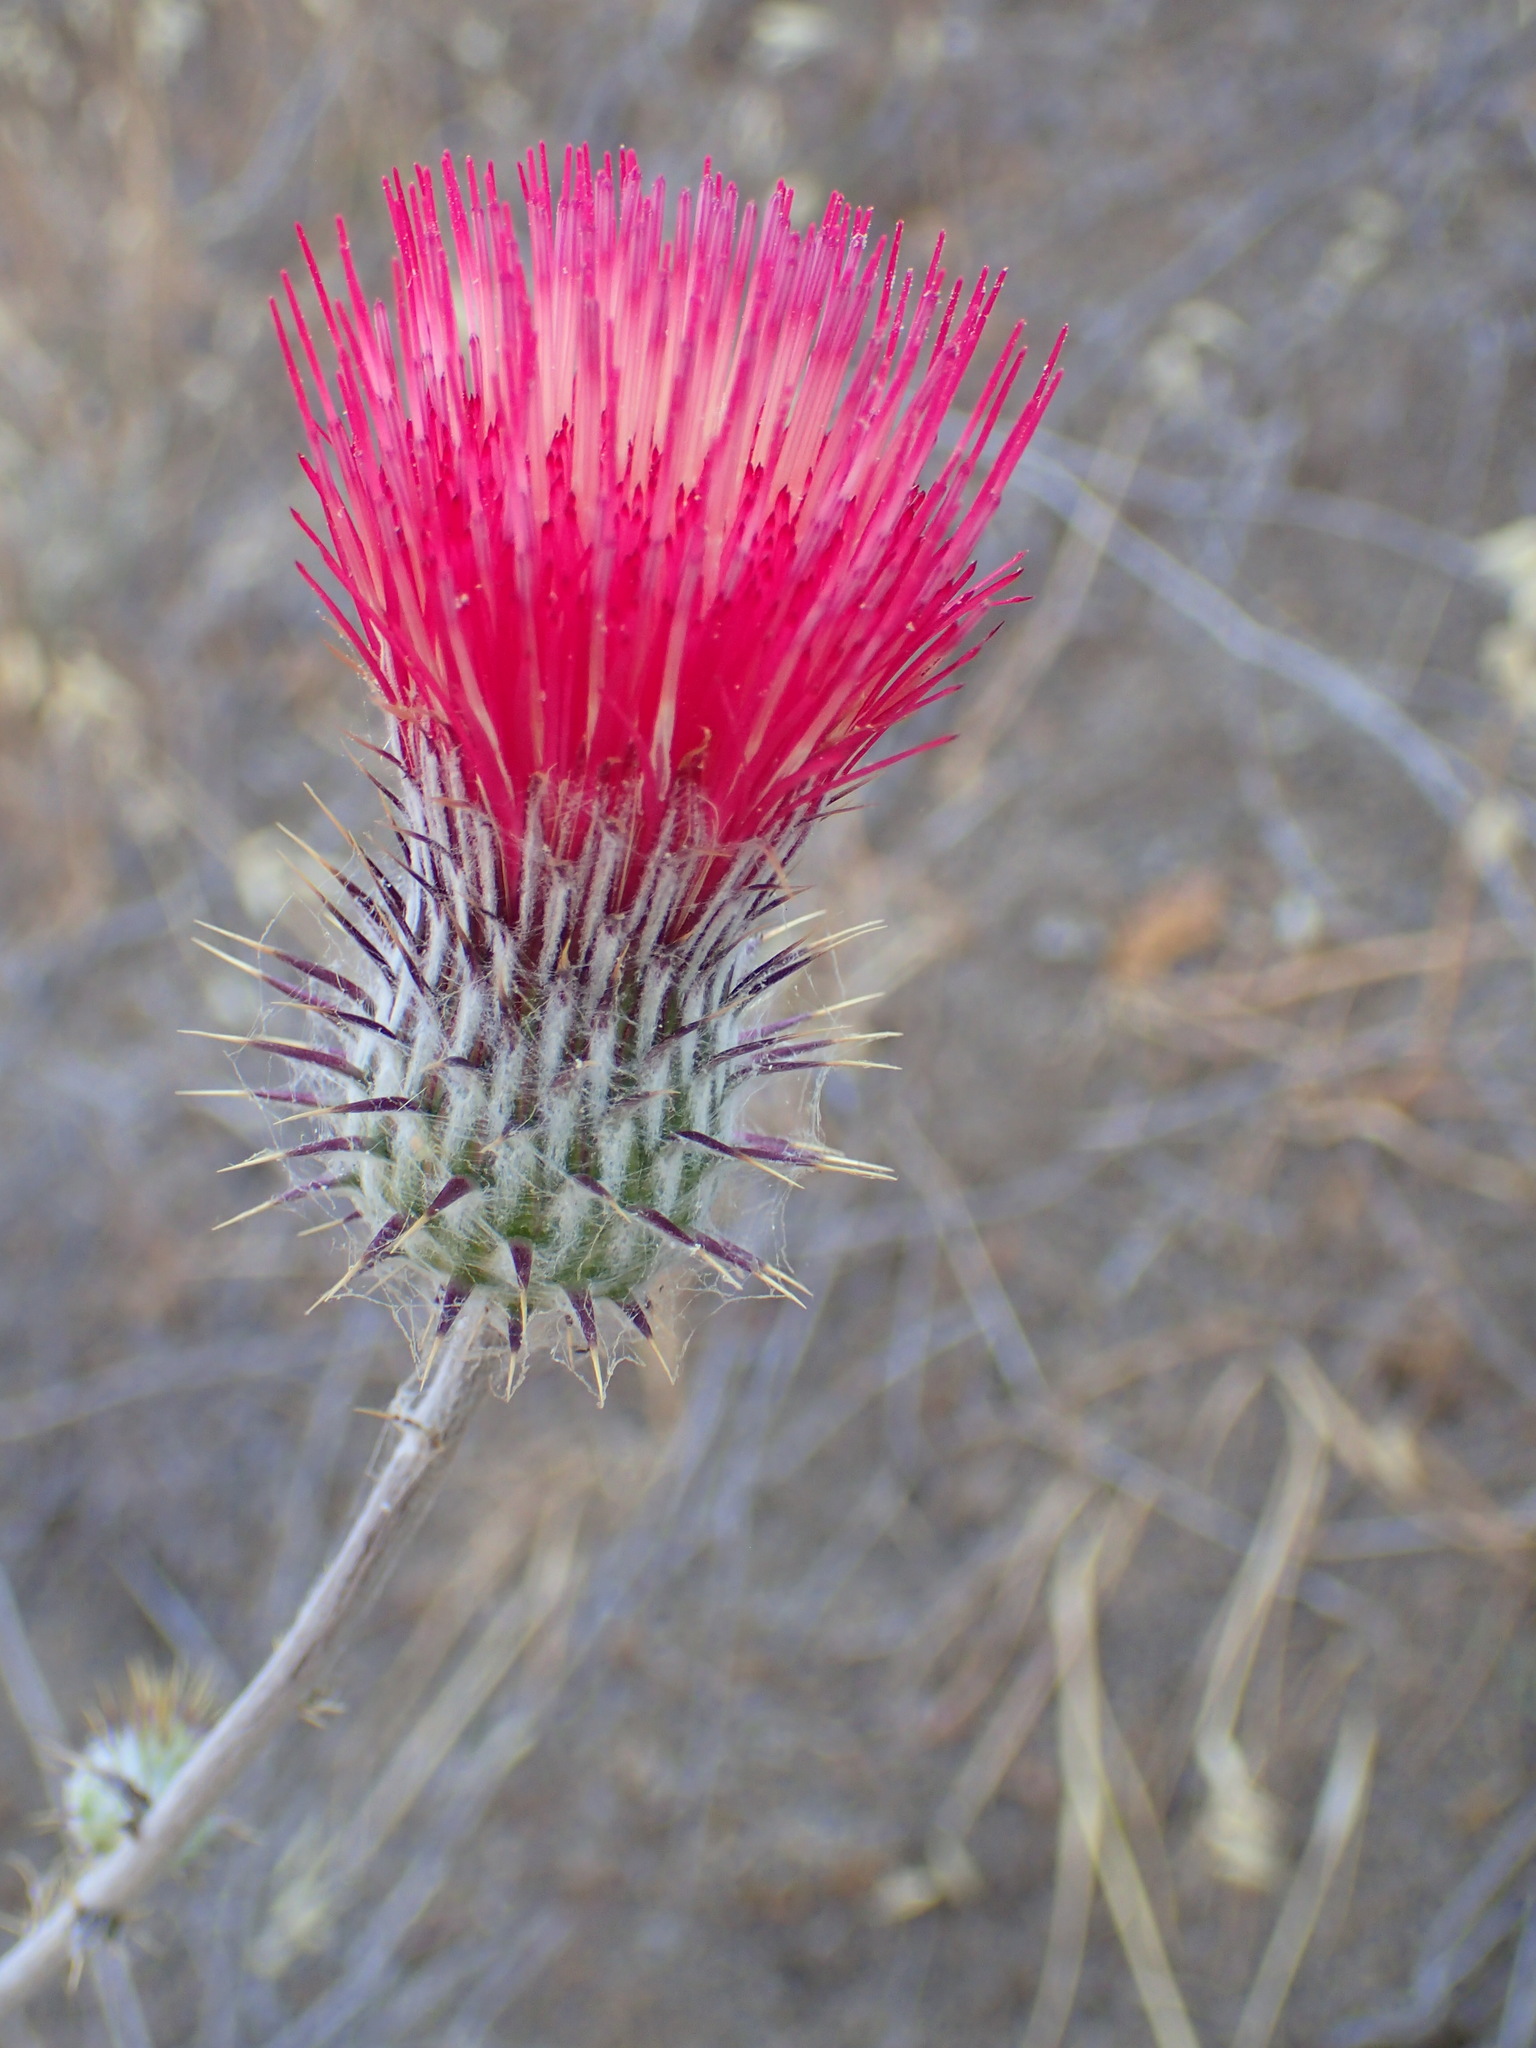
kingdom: Plantae
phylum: Tracheophyta
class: Magnoliopsida
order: Asterales
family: Asteraceae
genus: Cirsium
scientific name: Cirsium occidentale
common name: Western thistle
